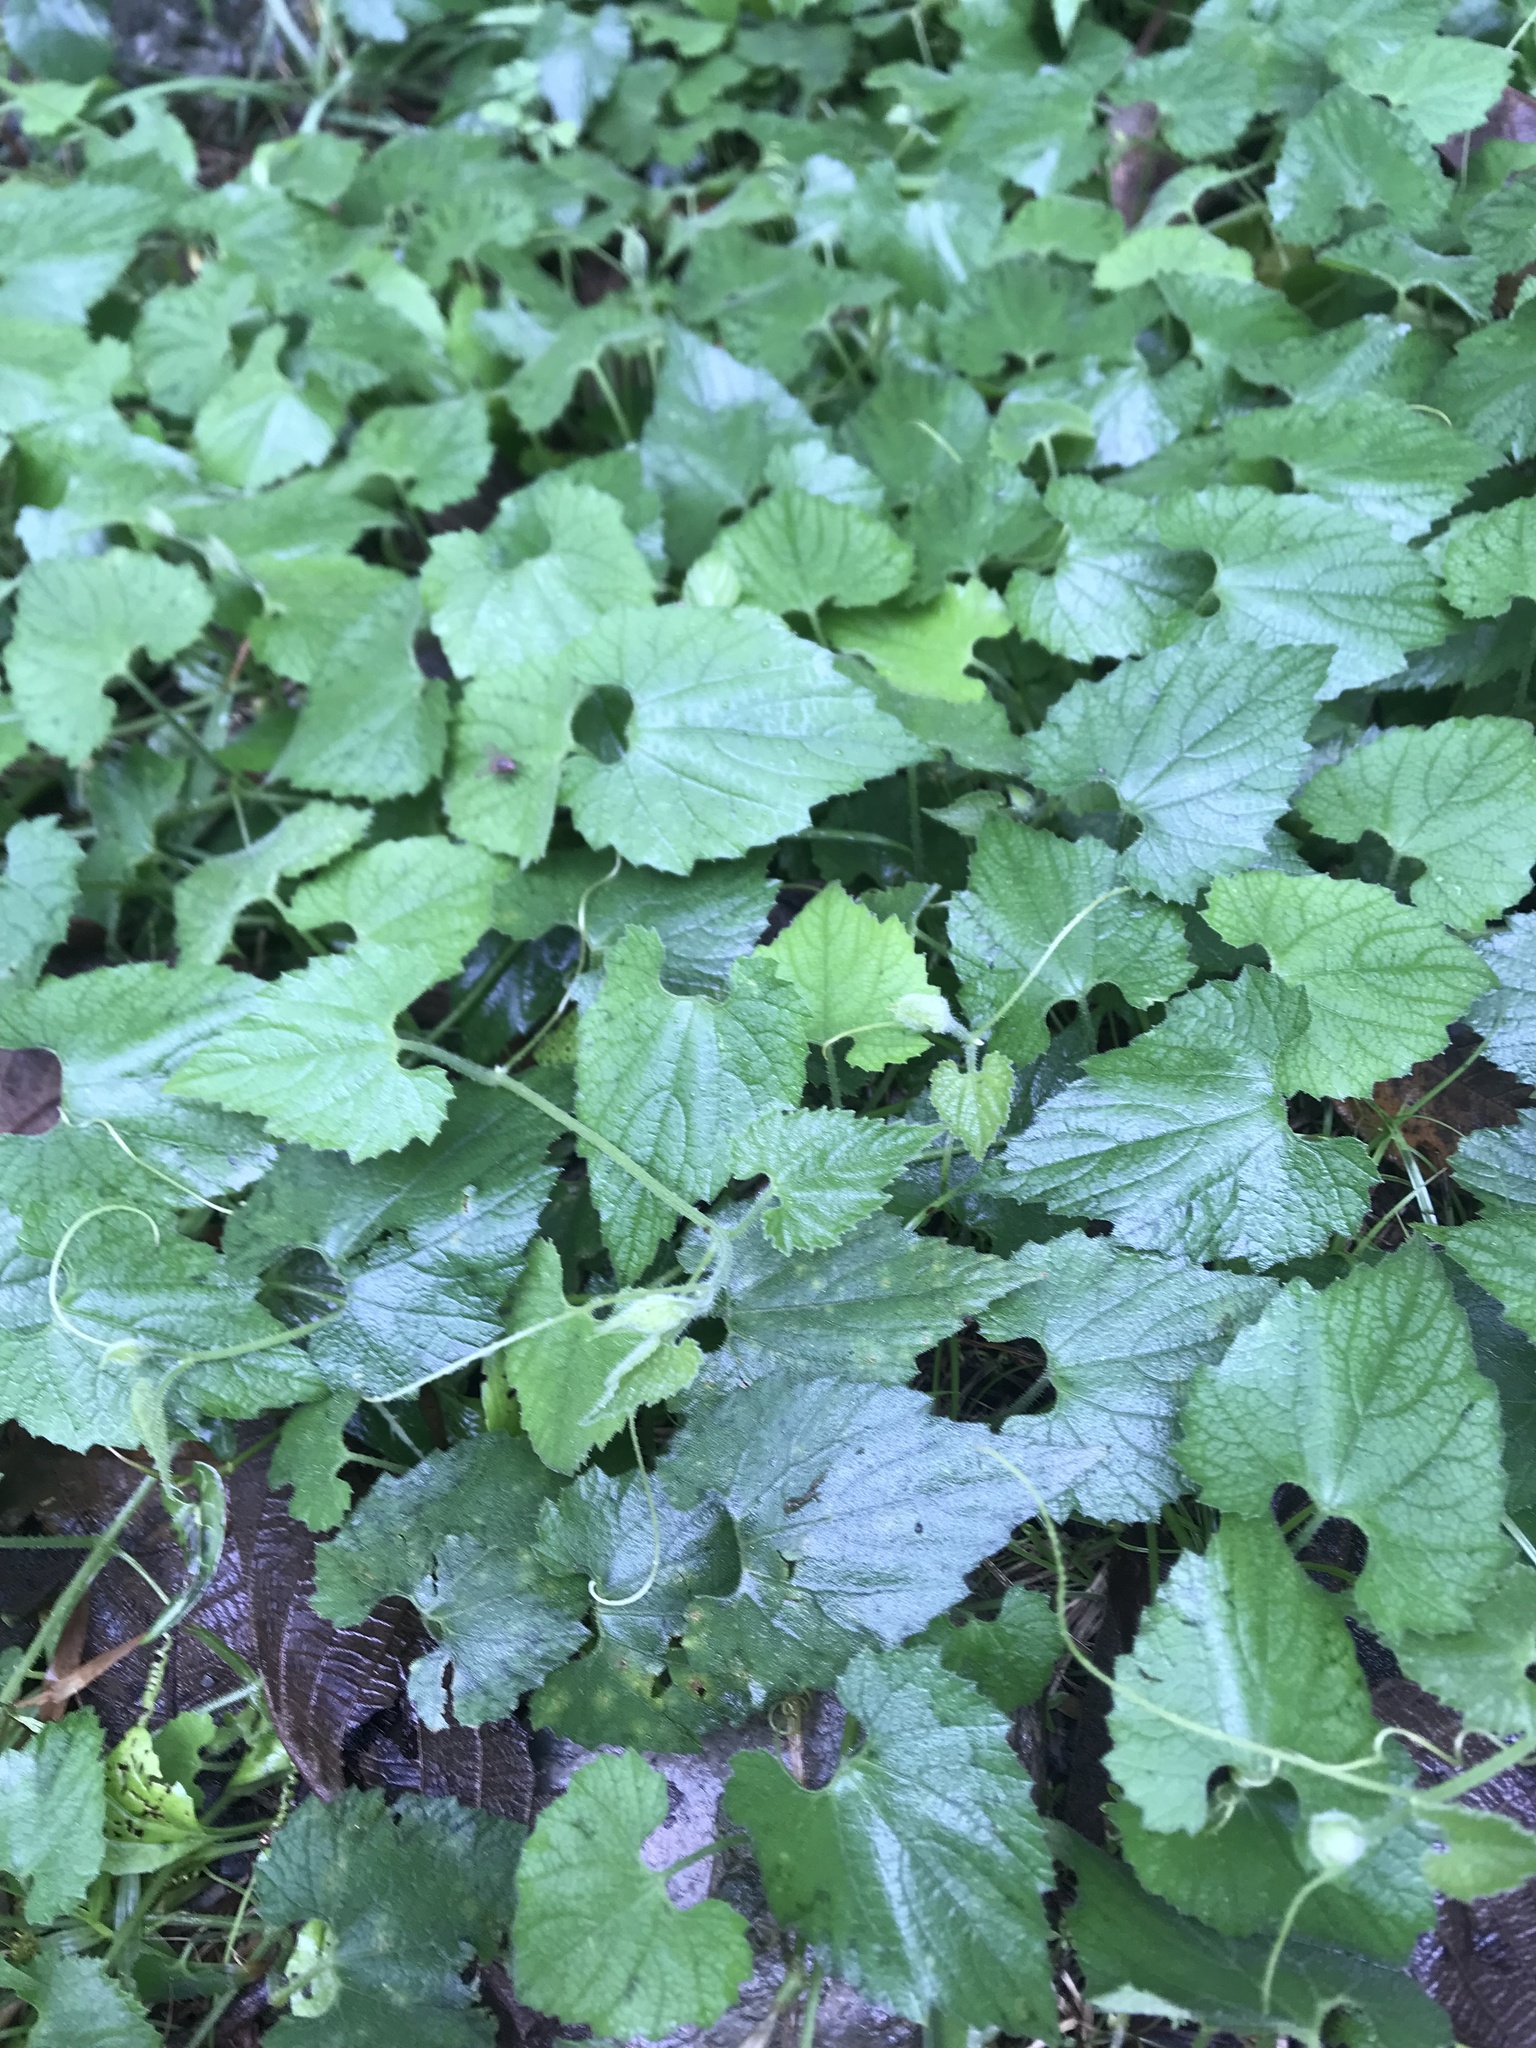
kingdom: Plantae
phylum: Tracheophyta
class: Magnoliopsida
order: Cucurbitales
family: Cucurbitaceae
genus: Thladiantha
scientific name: Thladiantha nudiflora
